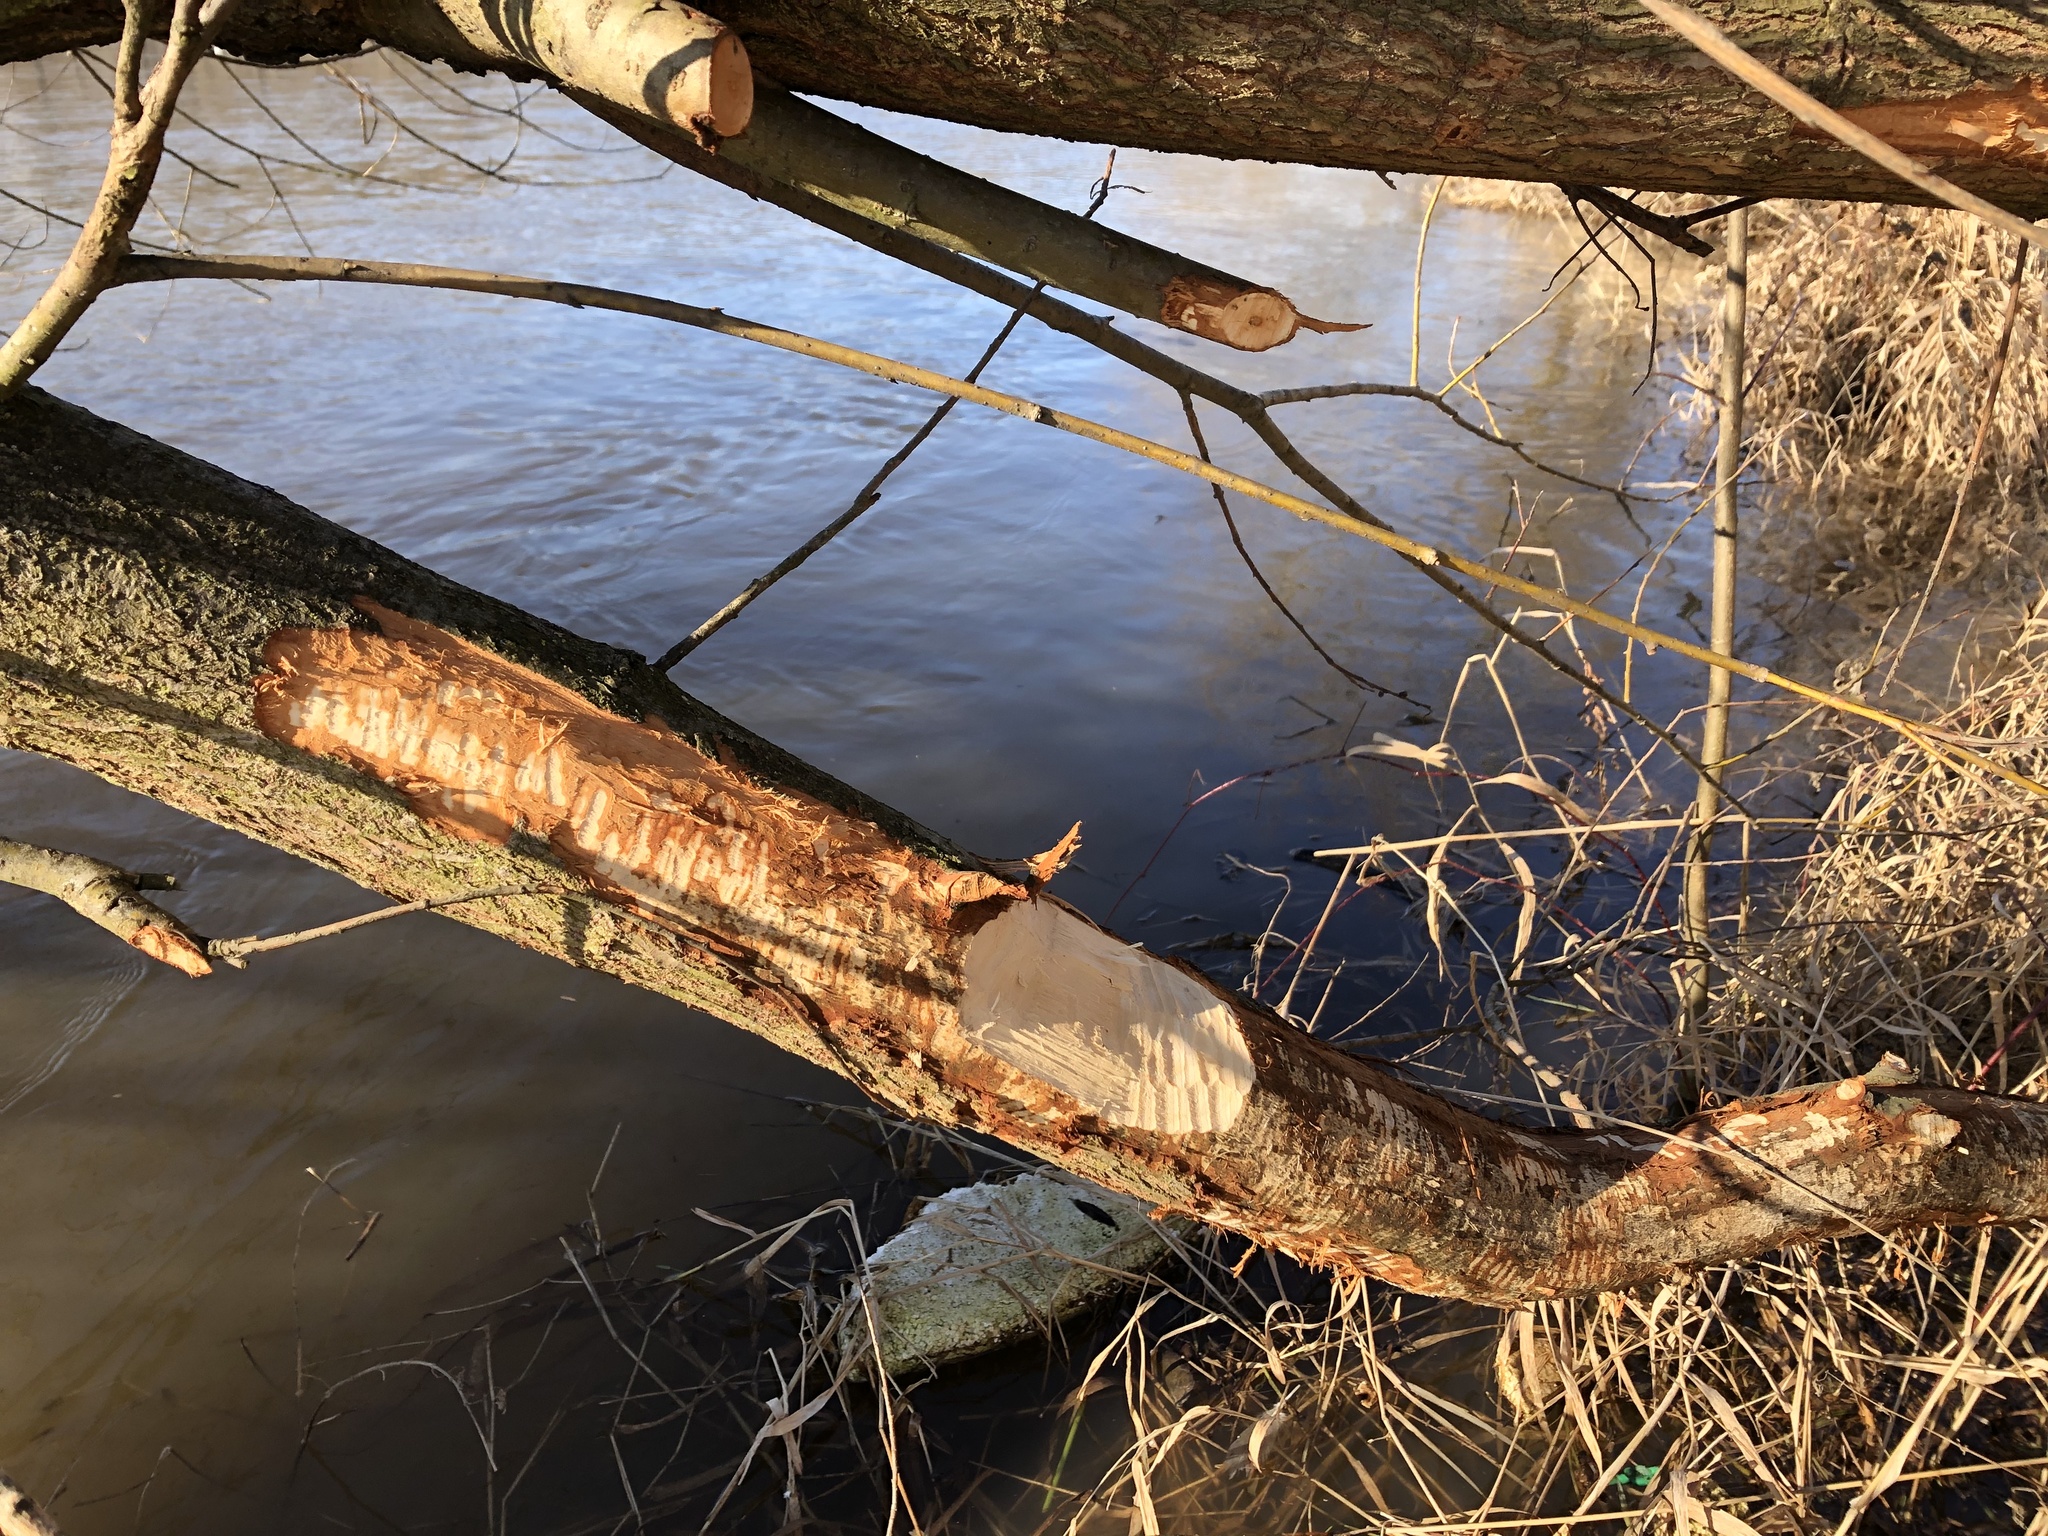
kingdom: Animalia
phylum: Chordata
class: Mammalia
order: Rodentia
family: Castoridae
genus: Castor
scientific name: Castor fiber
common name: Eurasian beaver
